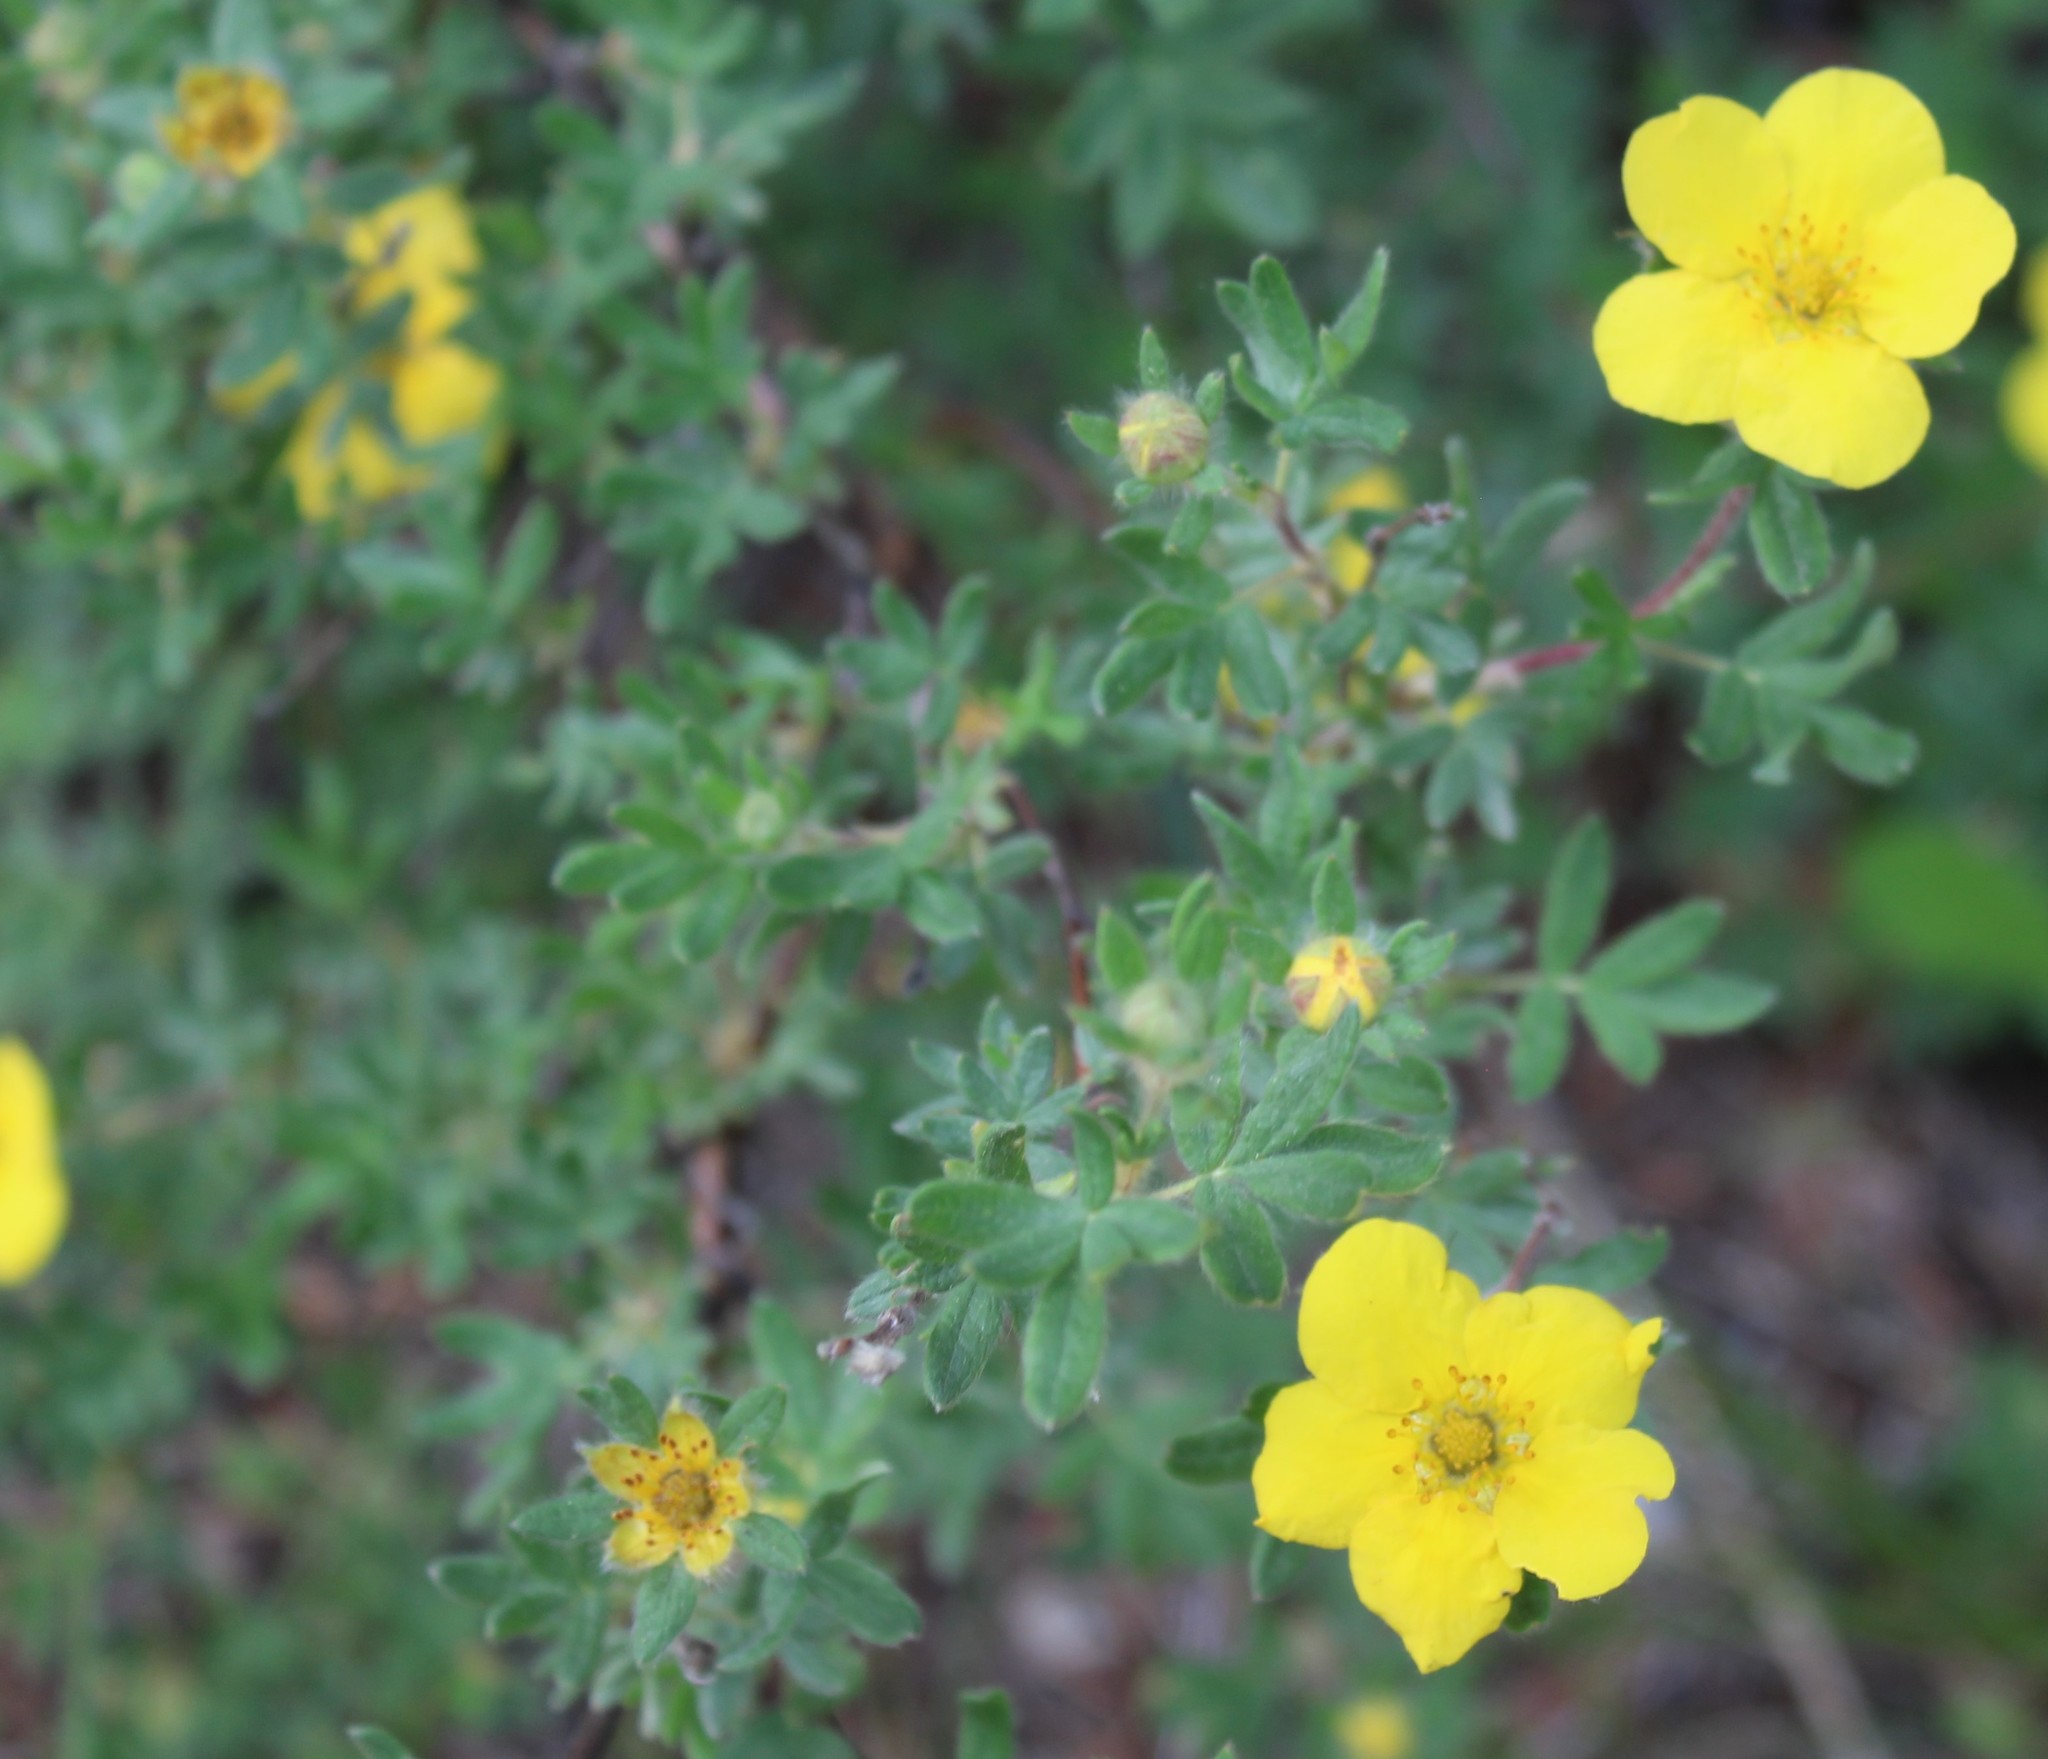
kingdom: Plantae
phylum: Tracheophyta
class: Magnoliopsida
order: Rosales
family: Rosaceae
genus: Dasiphora
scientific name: Dasiphora fruticosa
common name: Shrubby cinquefoil
